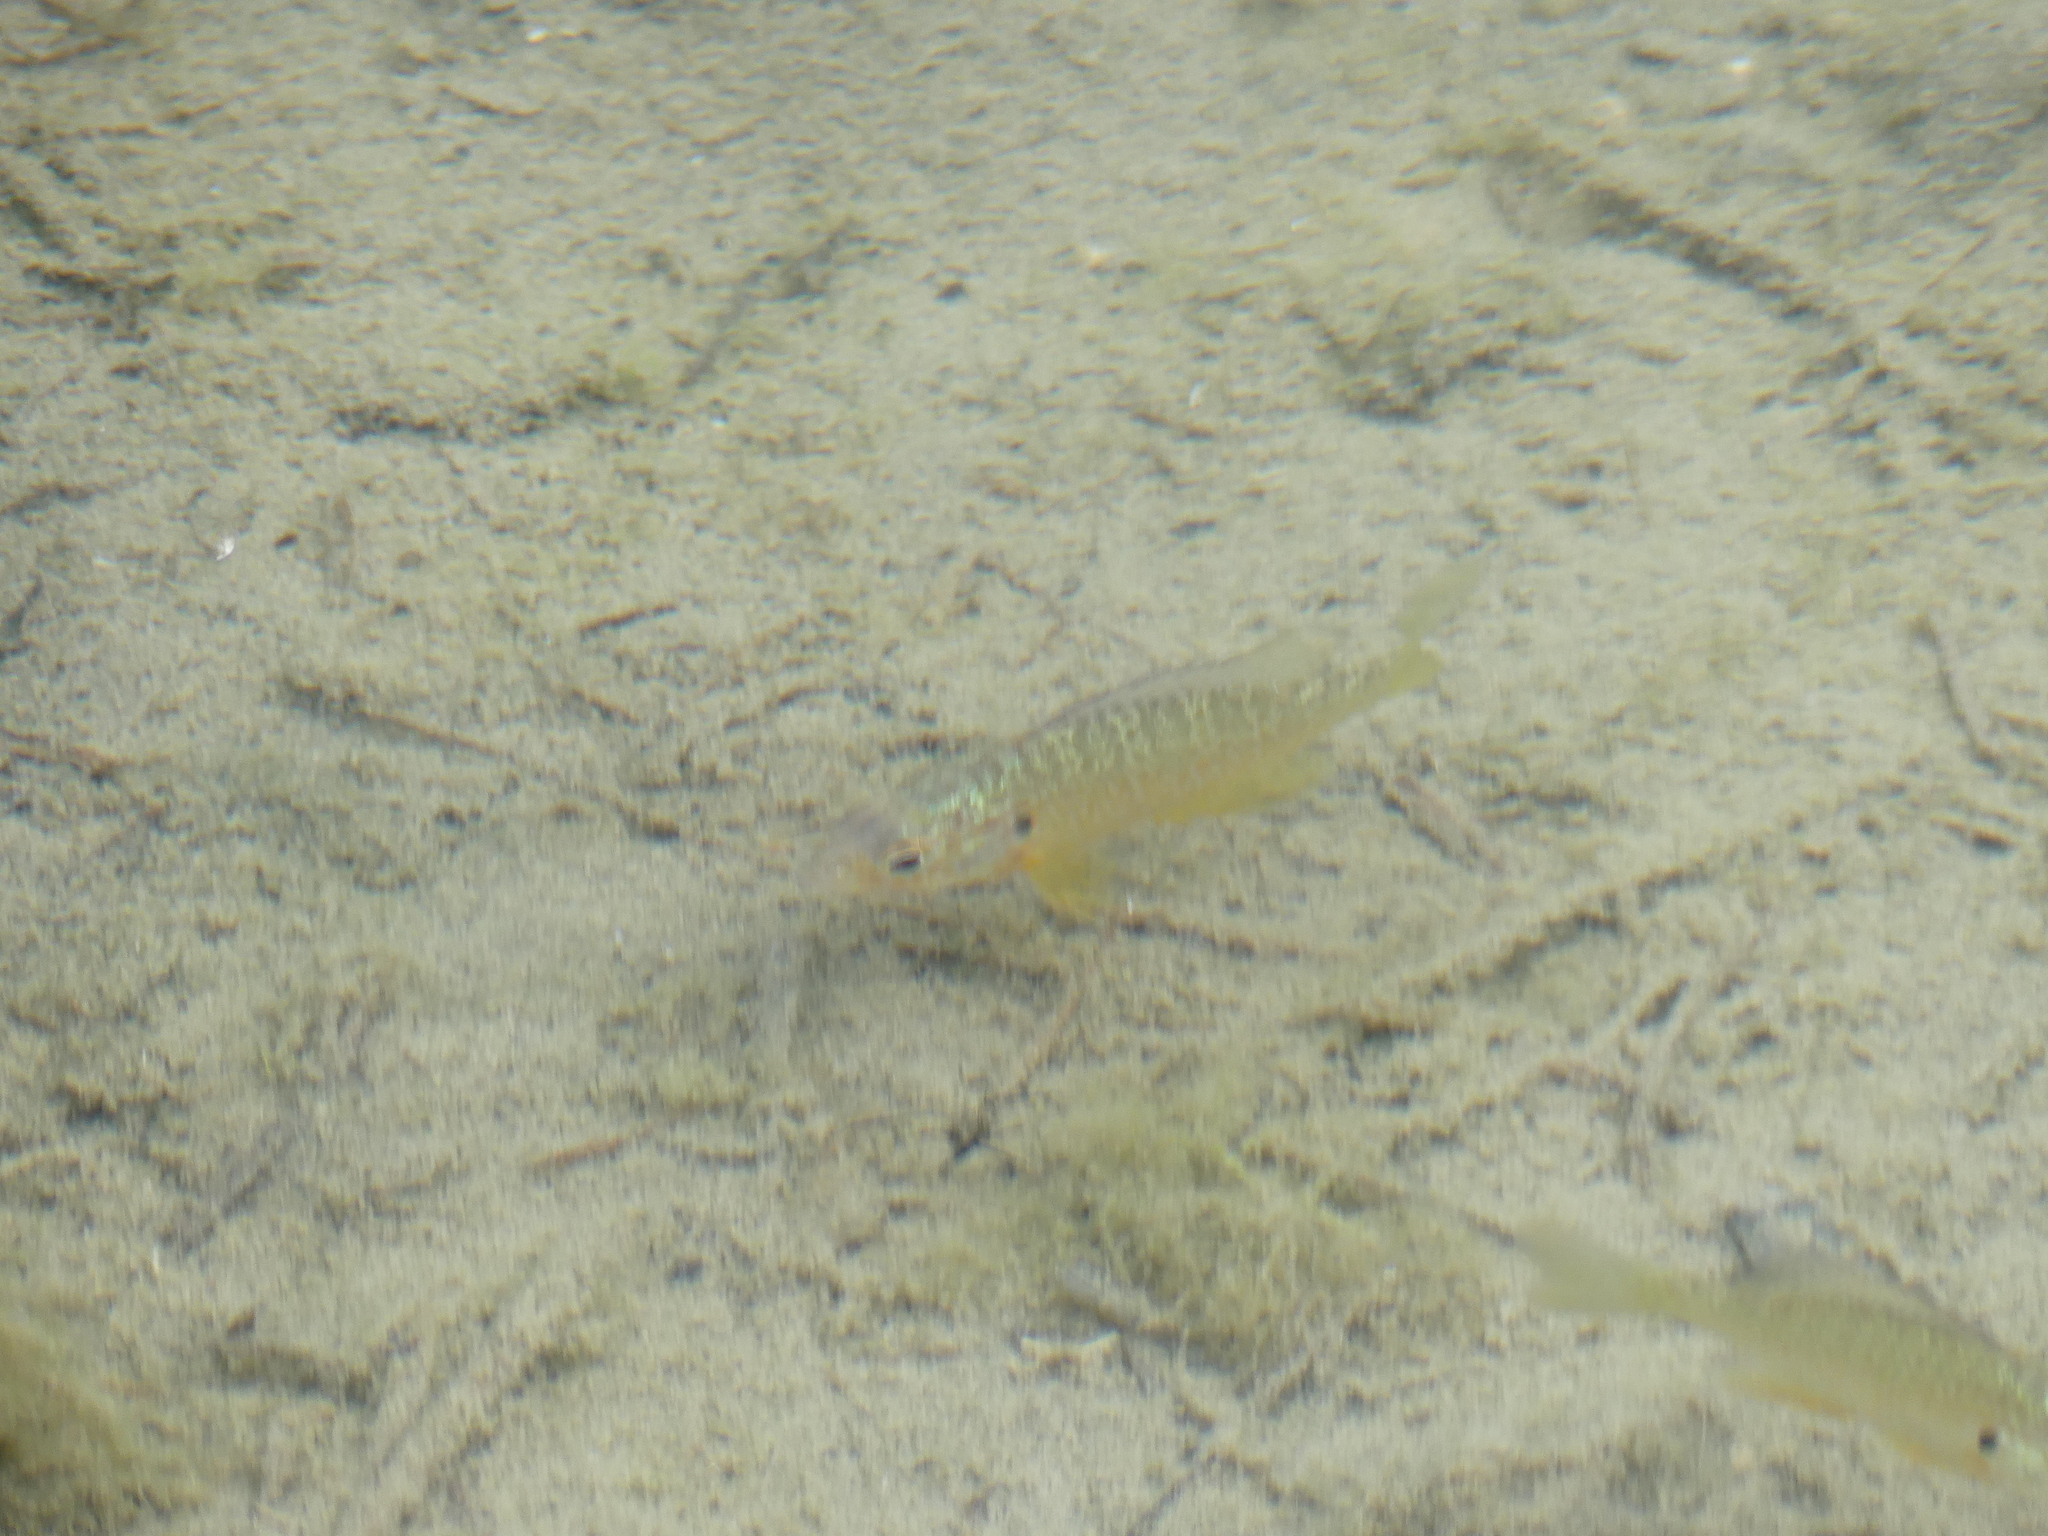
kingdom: Animalia
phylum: Chordata
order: Perciformes
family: Centrarchidae
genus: Lepomis
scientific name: Lepomis gibbosus
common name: Pumpkinseed
